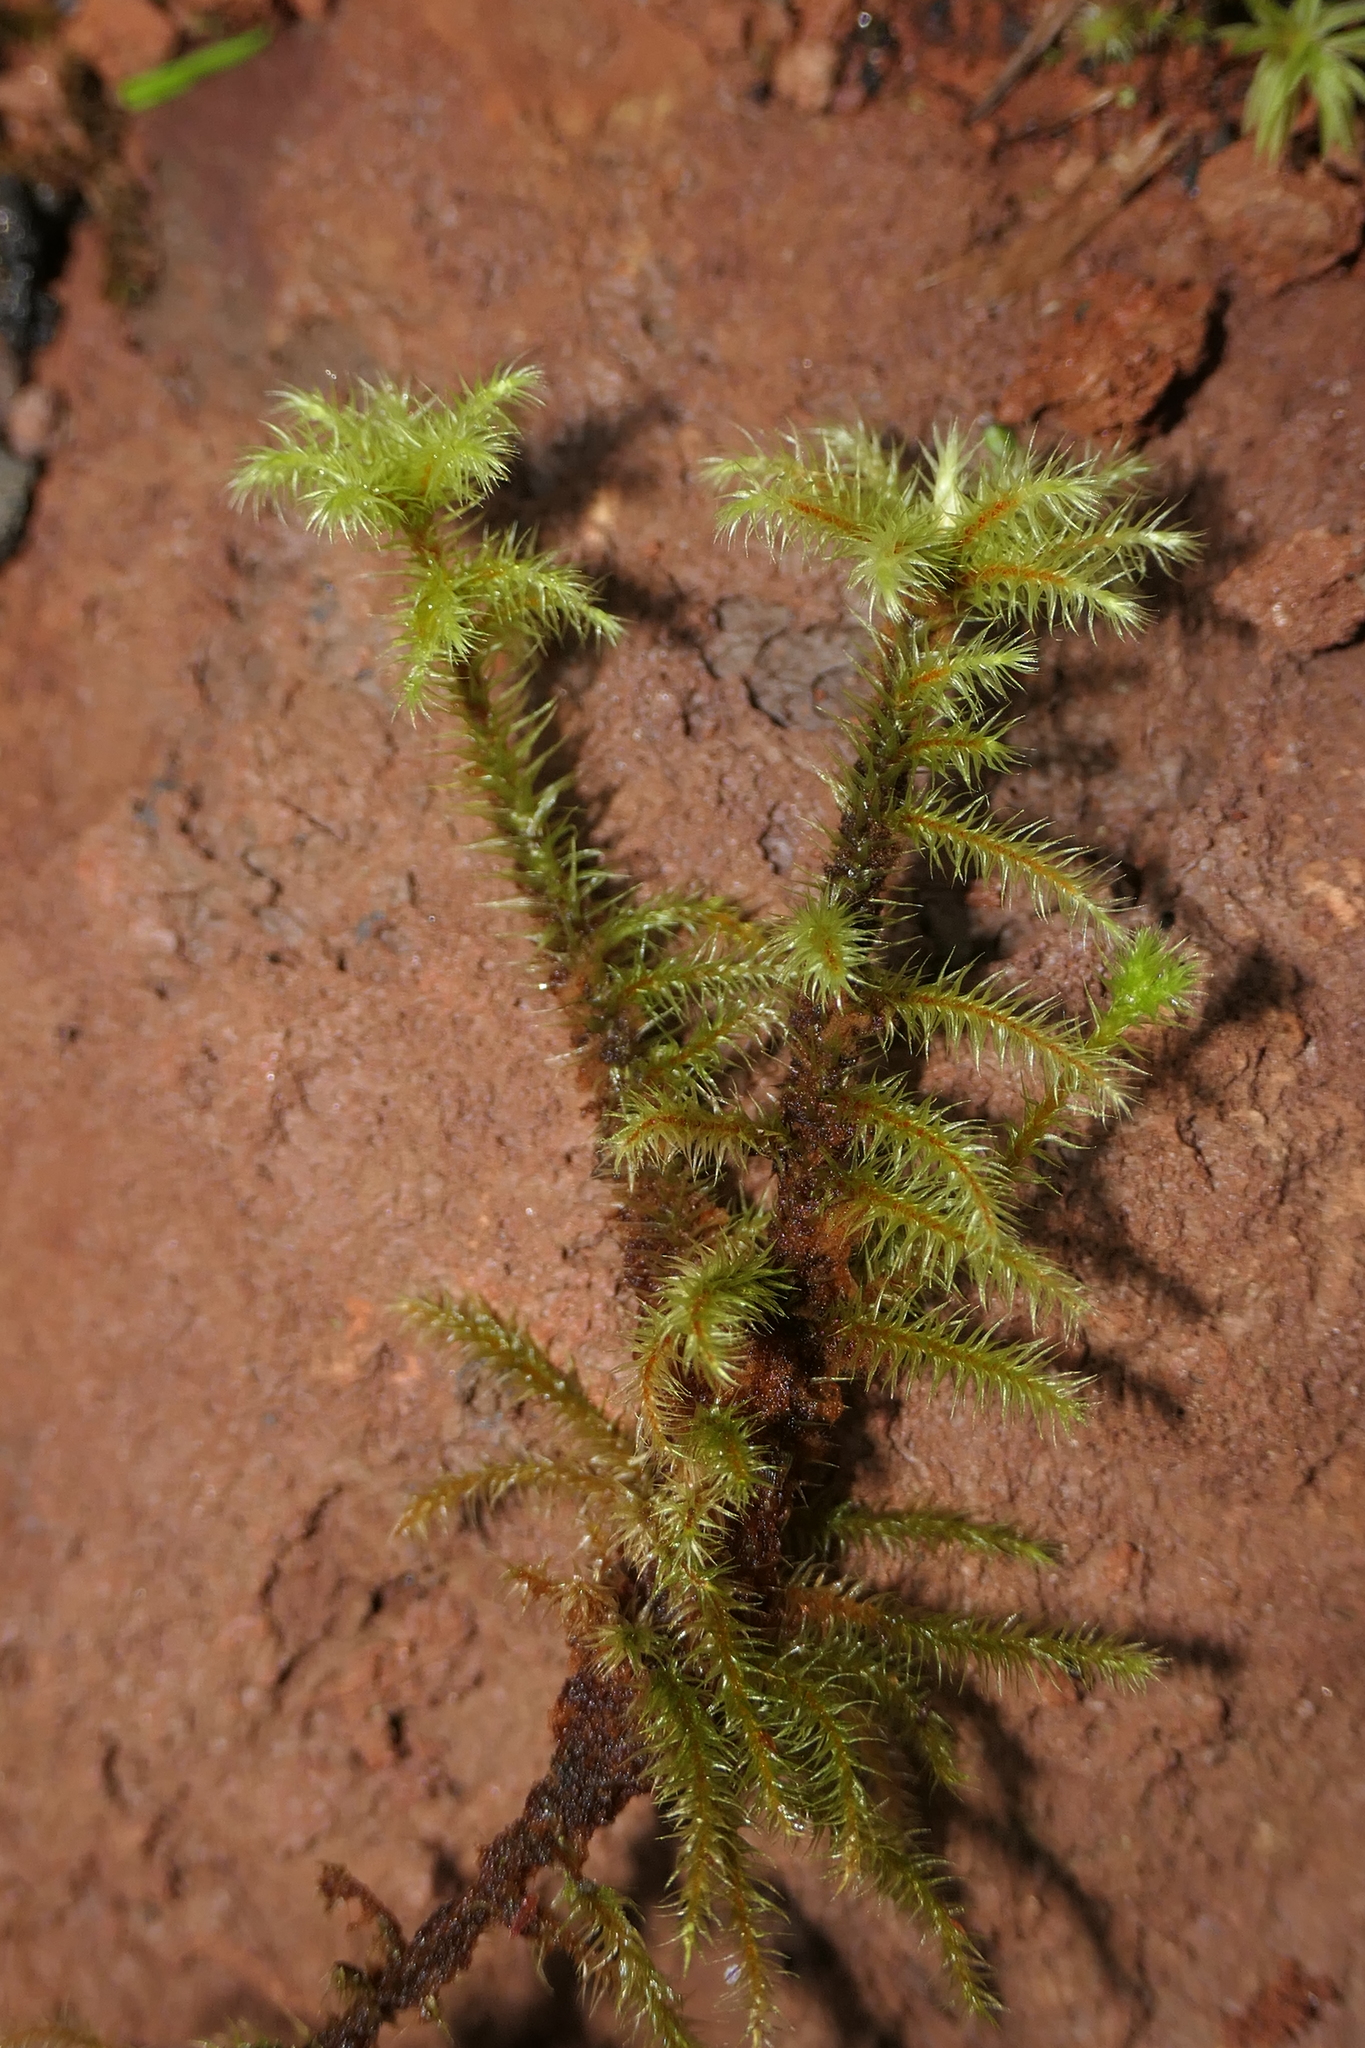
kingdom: Plantae
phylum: Bryophyta
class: Bryopsida
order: Bartramiales
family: Bartramiaceae
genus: Breutelia
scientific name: Breutelia azorica
